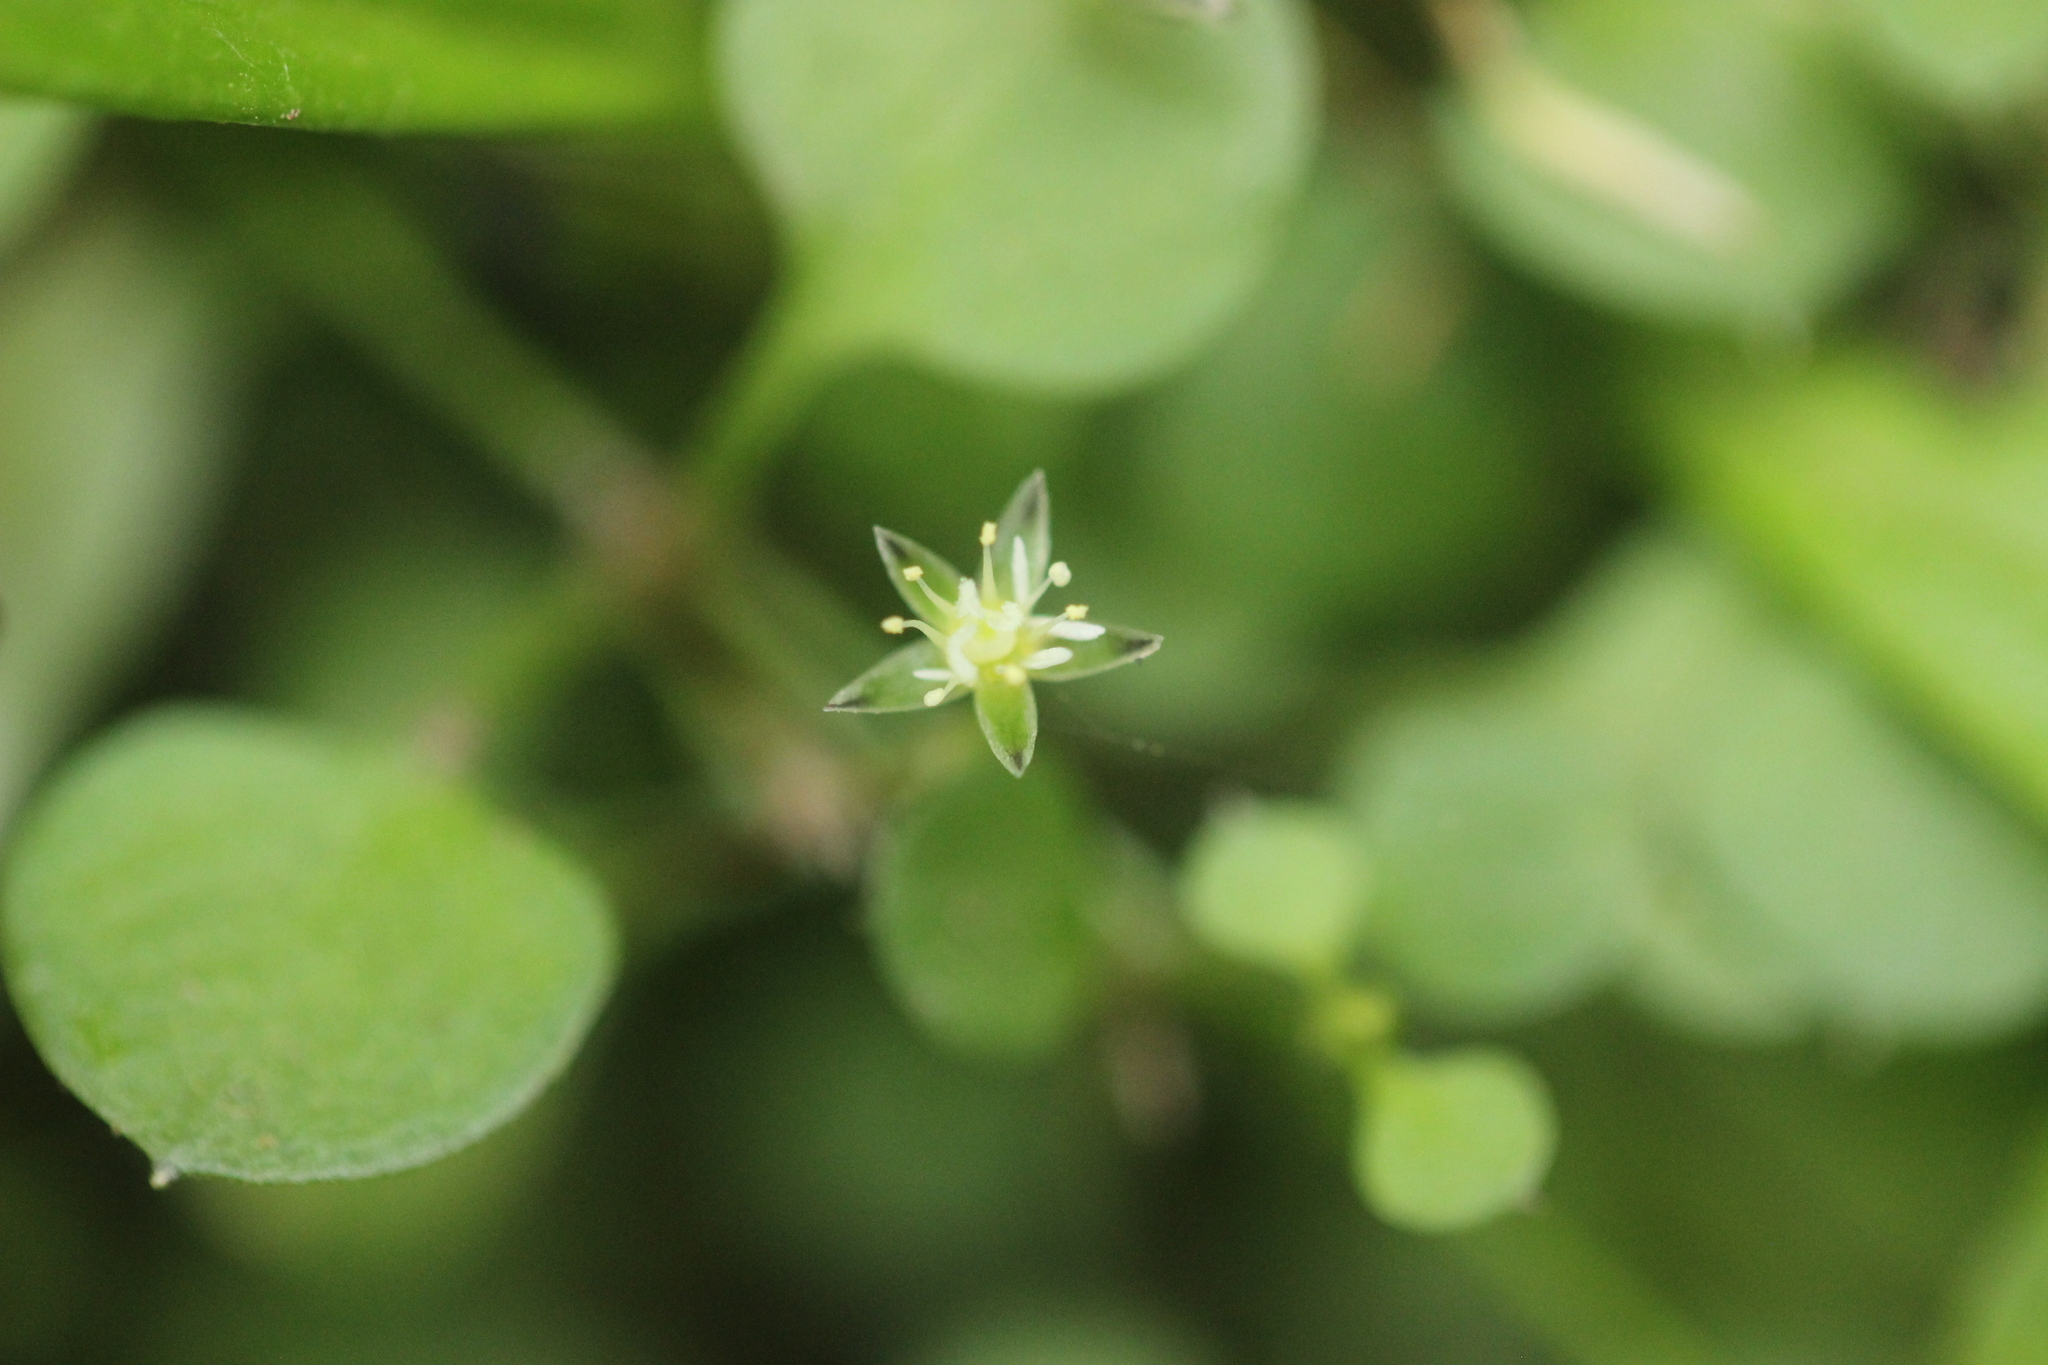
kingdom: Plantae
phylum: Tracheophyta
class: Magnoliopsida
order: Caryophyllales
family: Caryophyllaceae
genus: Stellaria
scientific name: Stellaria parviflora
